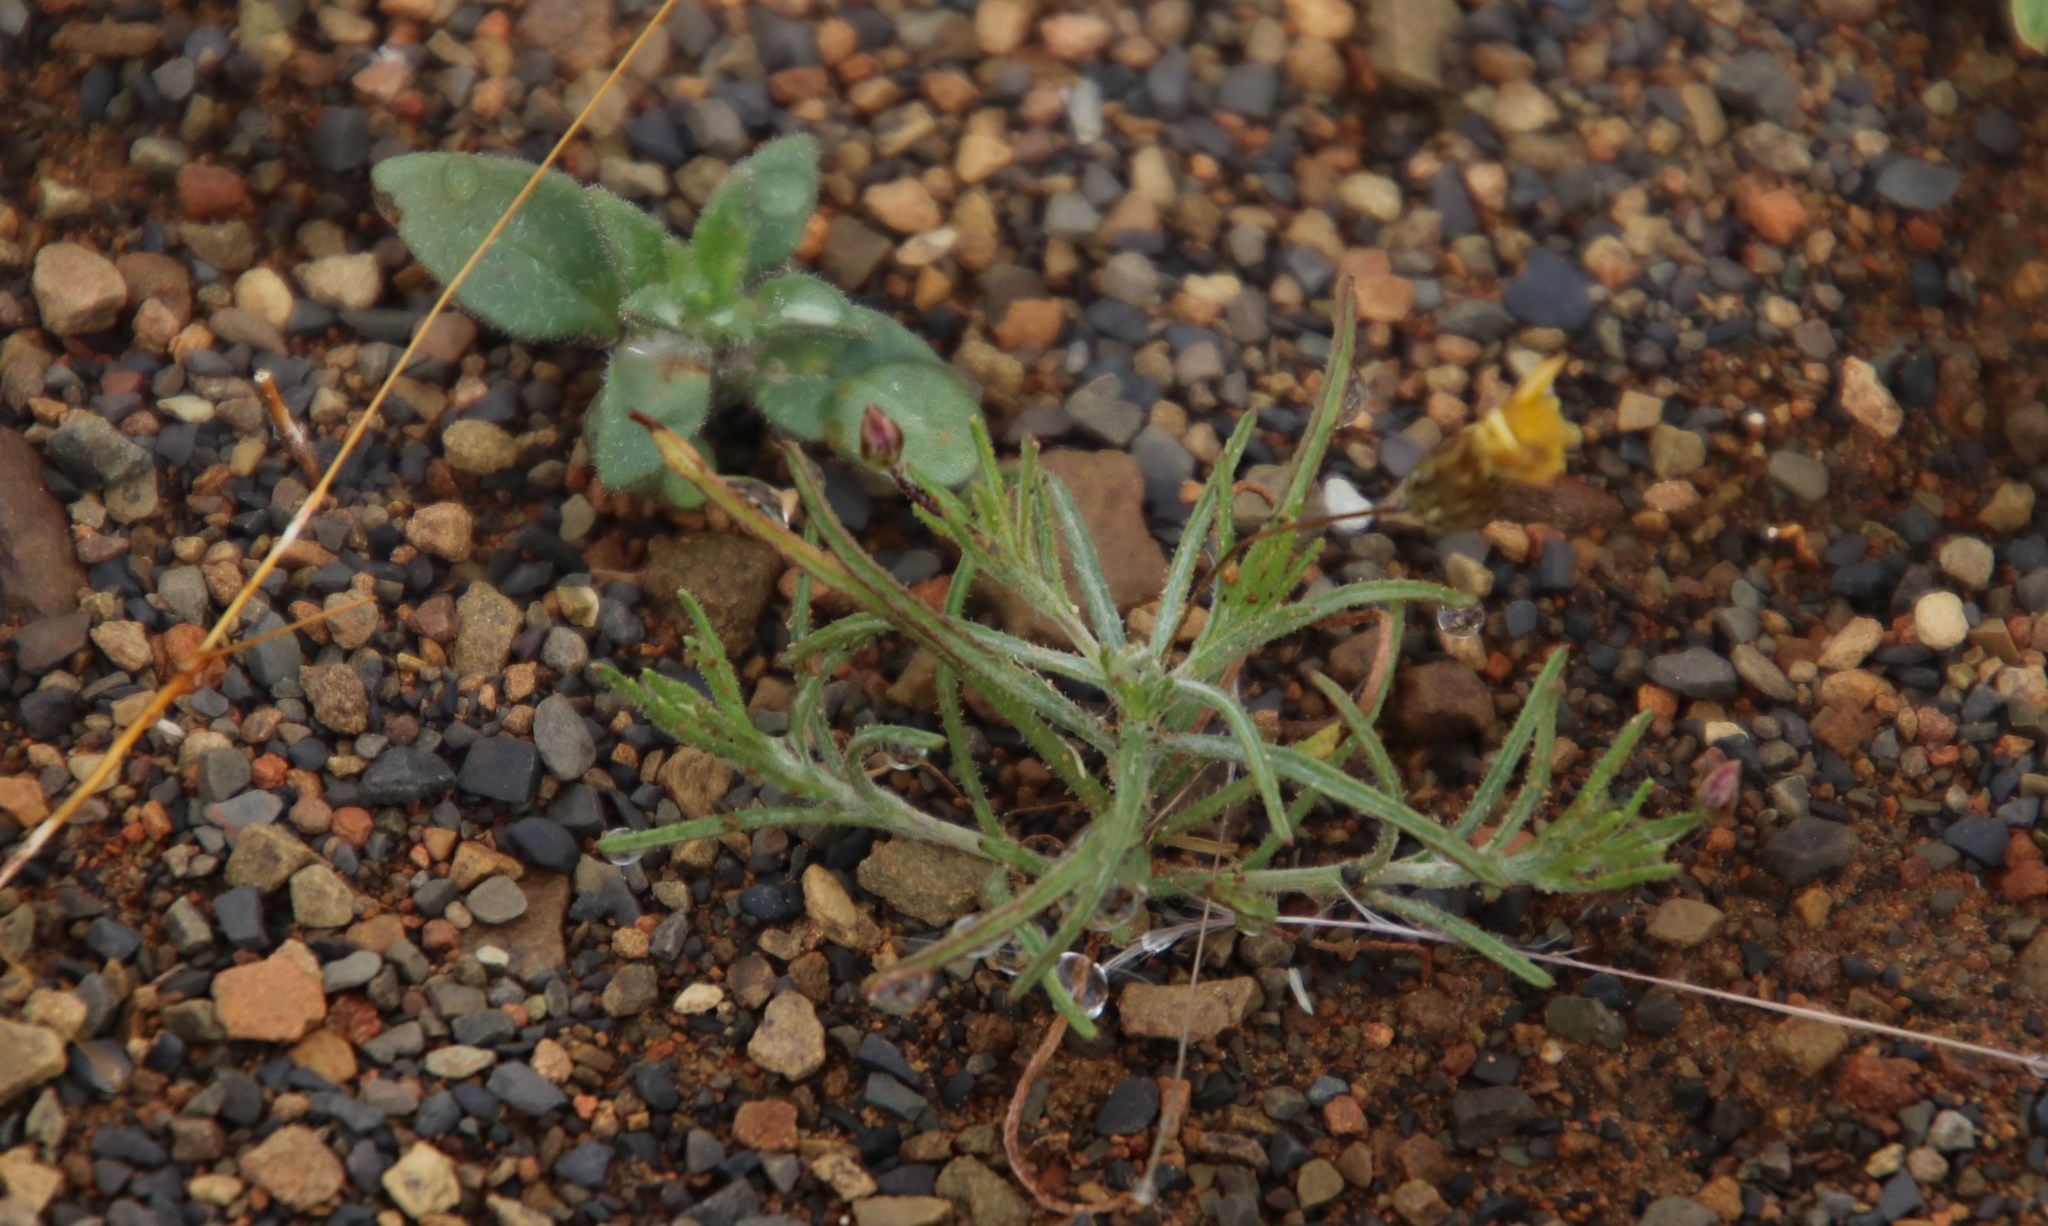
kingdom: Plantae
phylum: Tracheophyta
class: Magnoliopsida
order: Asterales
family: Asteraceae
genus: Leysera
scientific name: Leysera gnaphalodes
